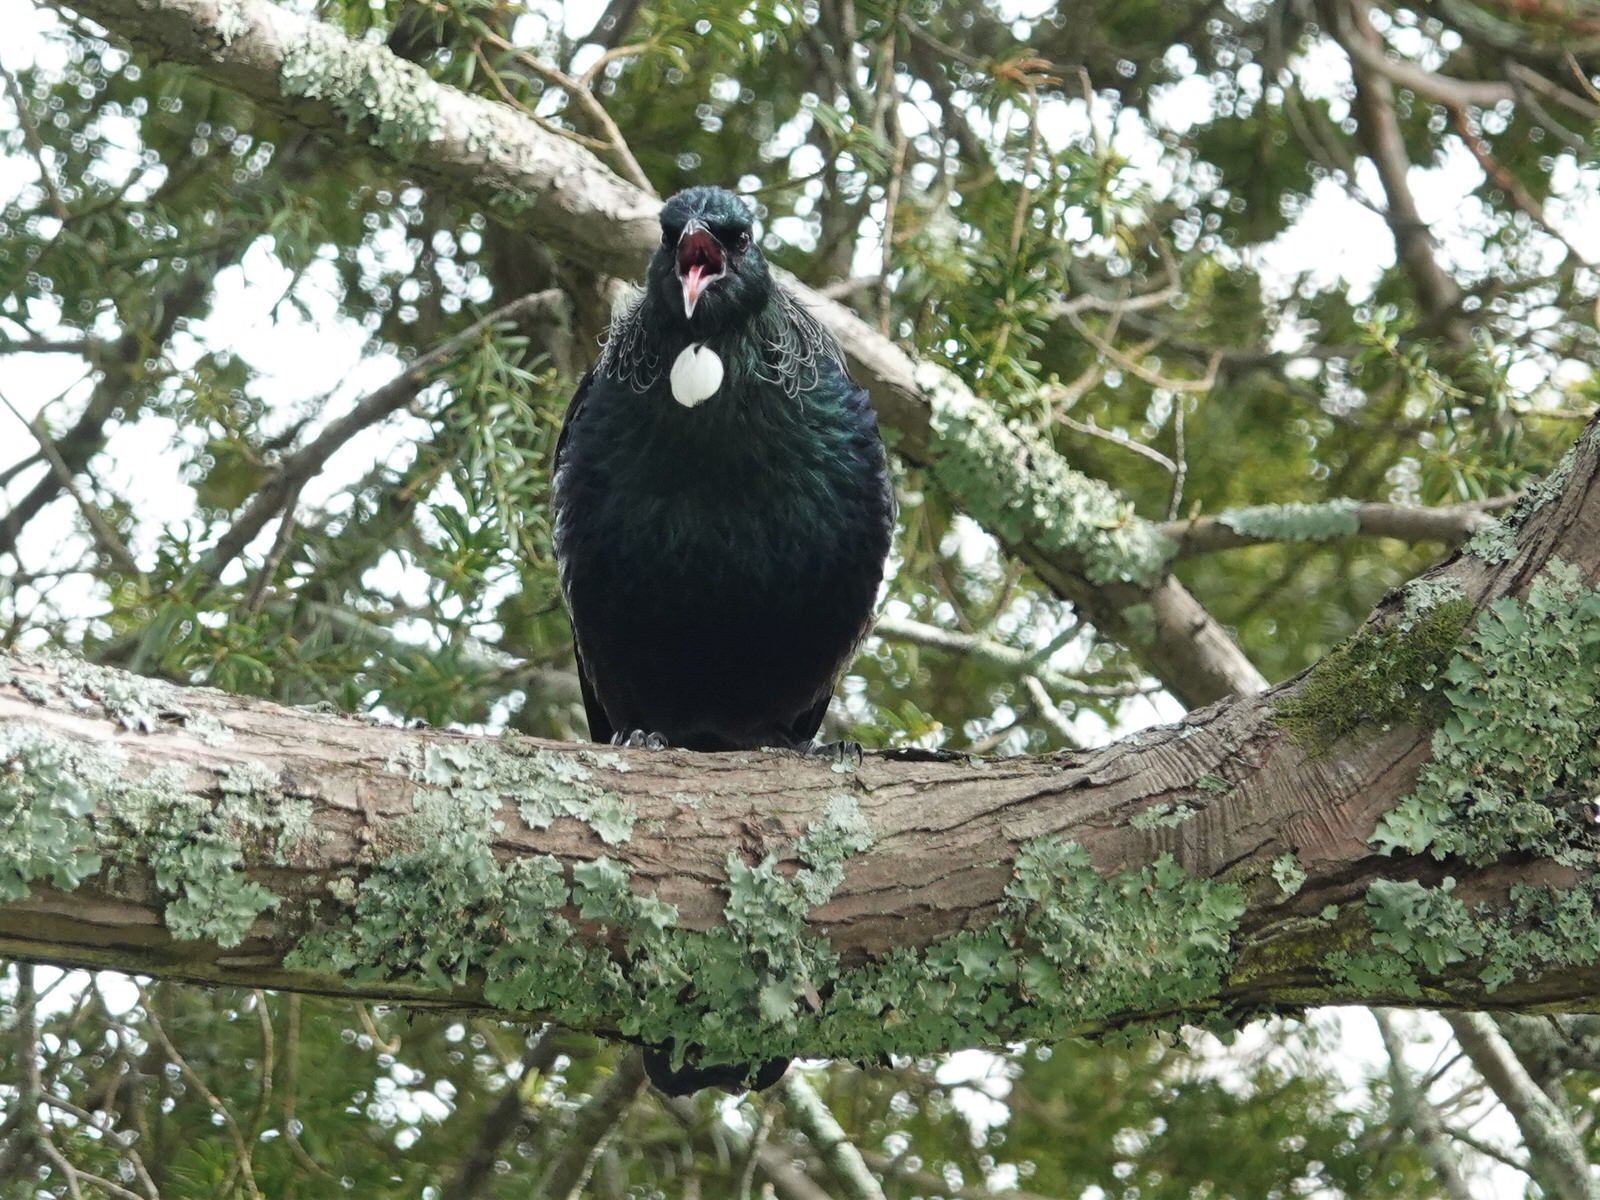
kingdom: Animalia
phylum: Chordata
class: Aves
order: Passeriformes
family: Meliphagidae
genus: Prosthemadera
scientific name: Prosthemadera novaeseelandiae
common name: Tui
